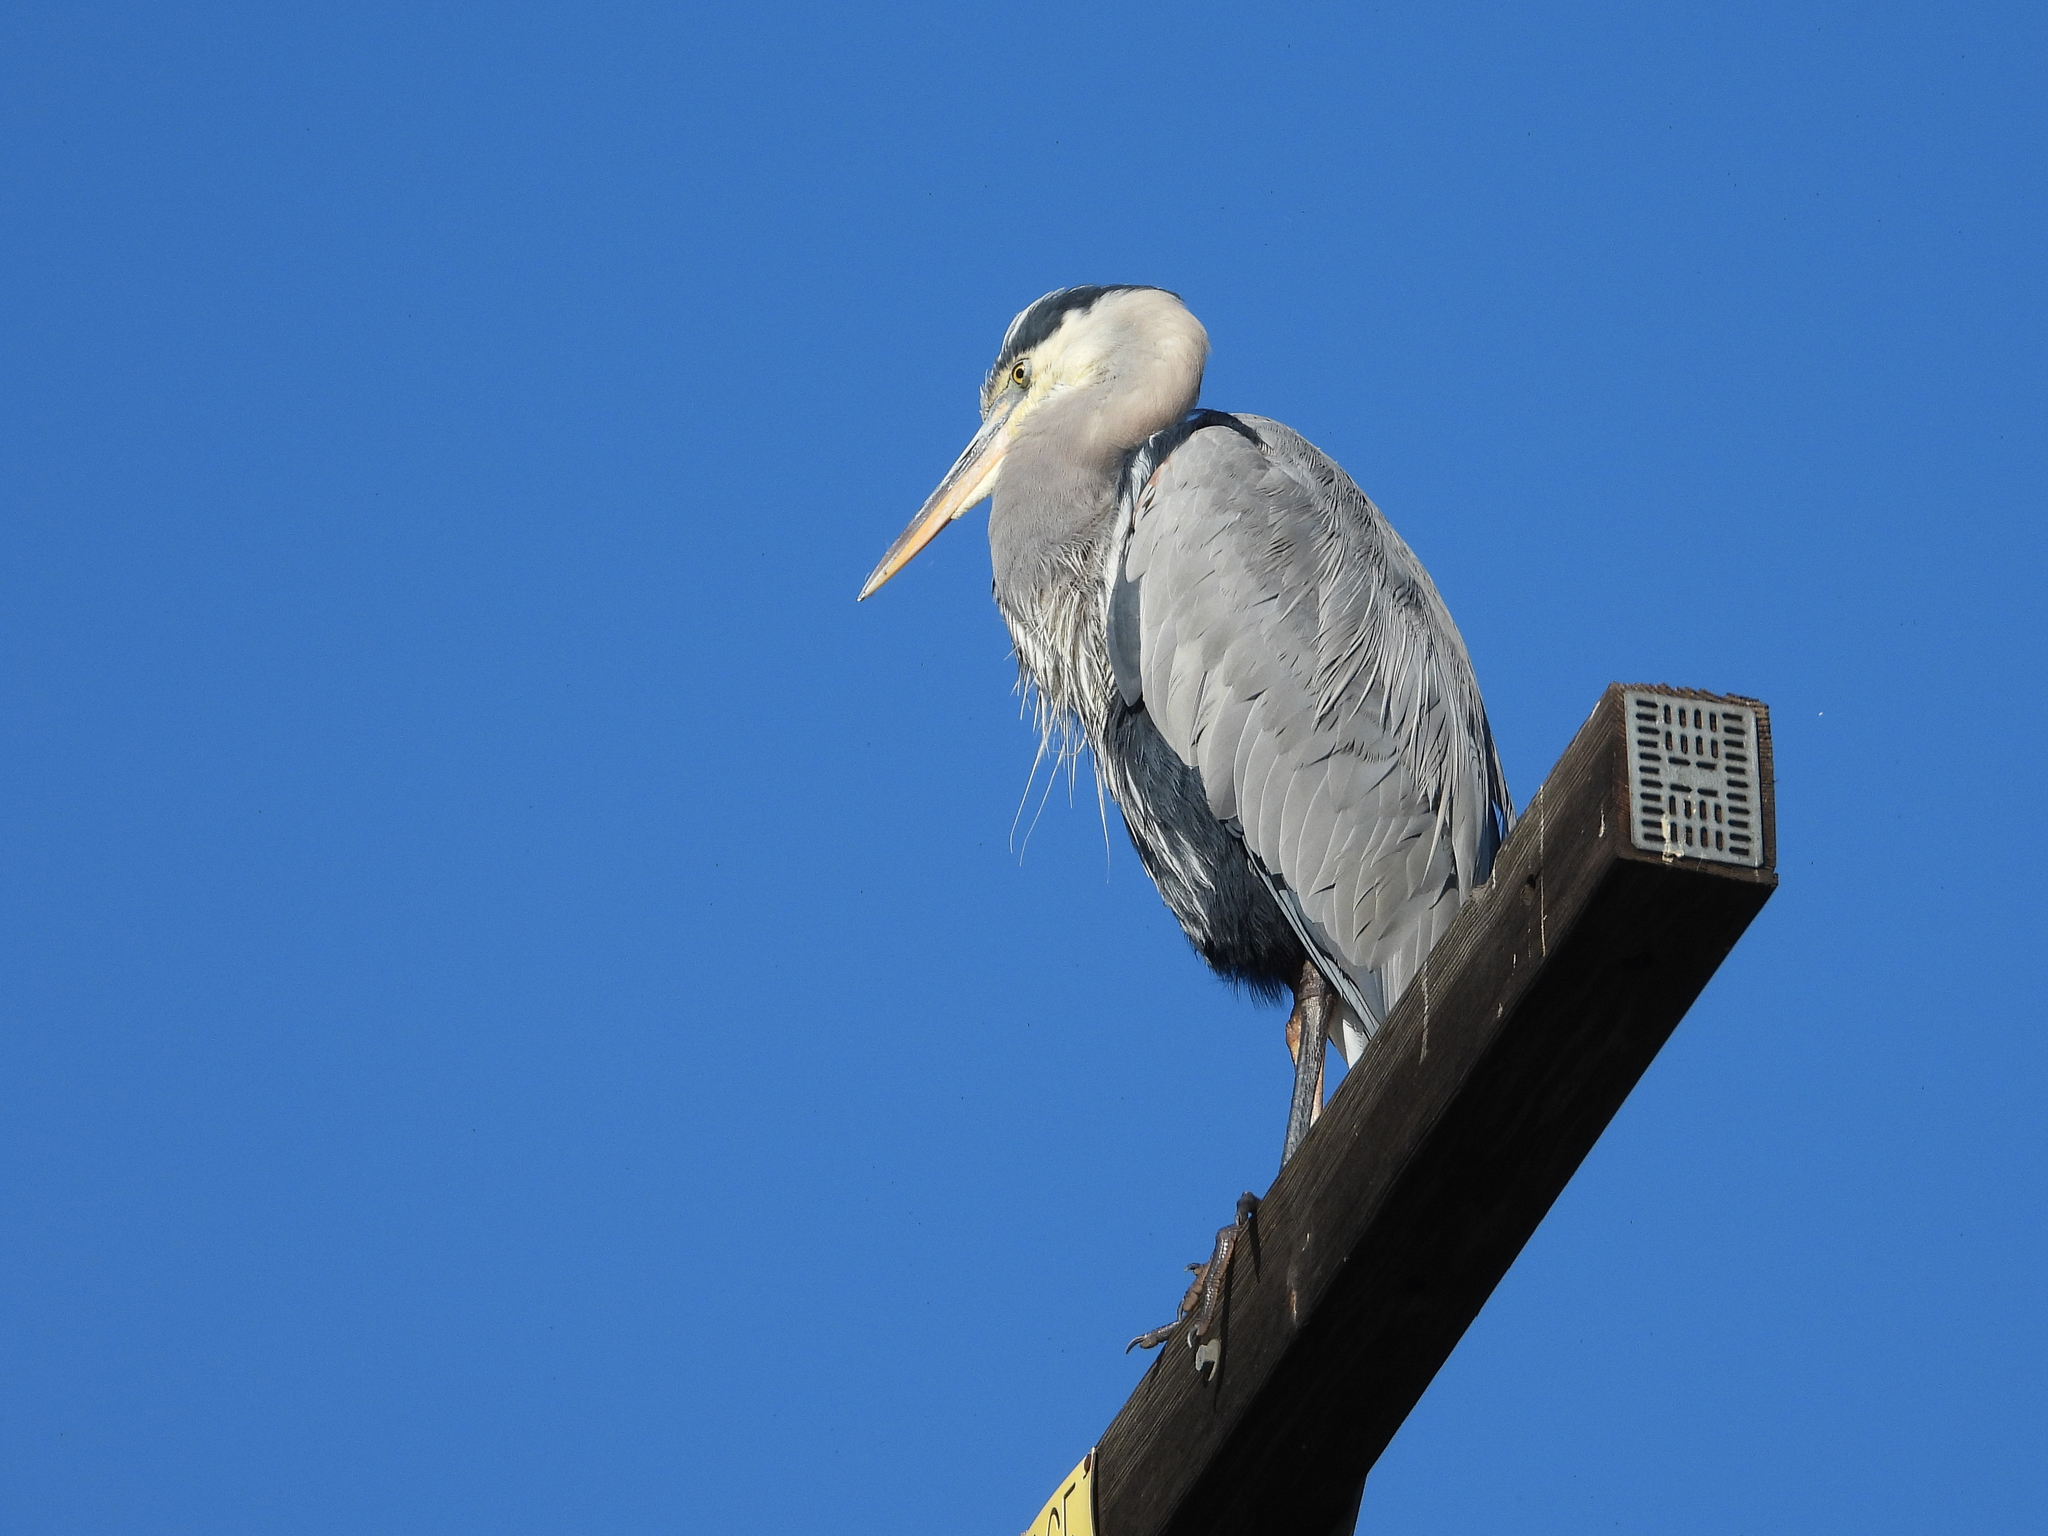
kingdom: Animalia
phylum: Chordata
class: Aves
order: Pelecaniformes
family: Ardeidae
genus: Ardea
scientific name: Ardea herodias
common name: Great blue heron
